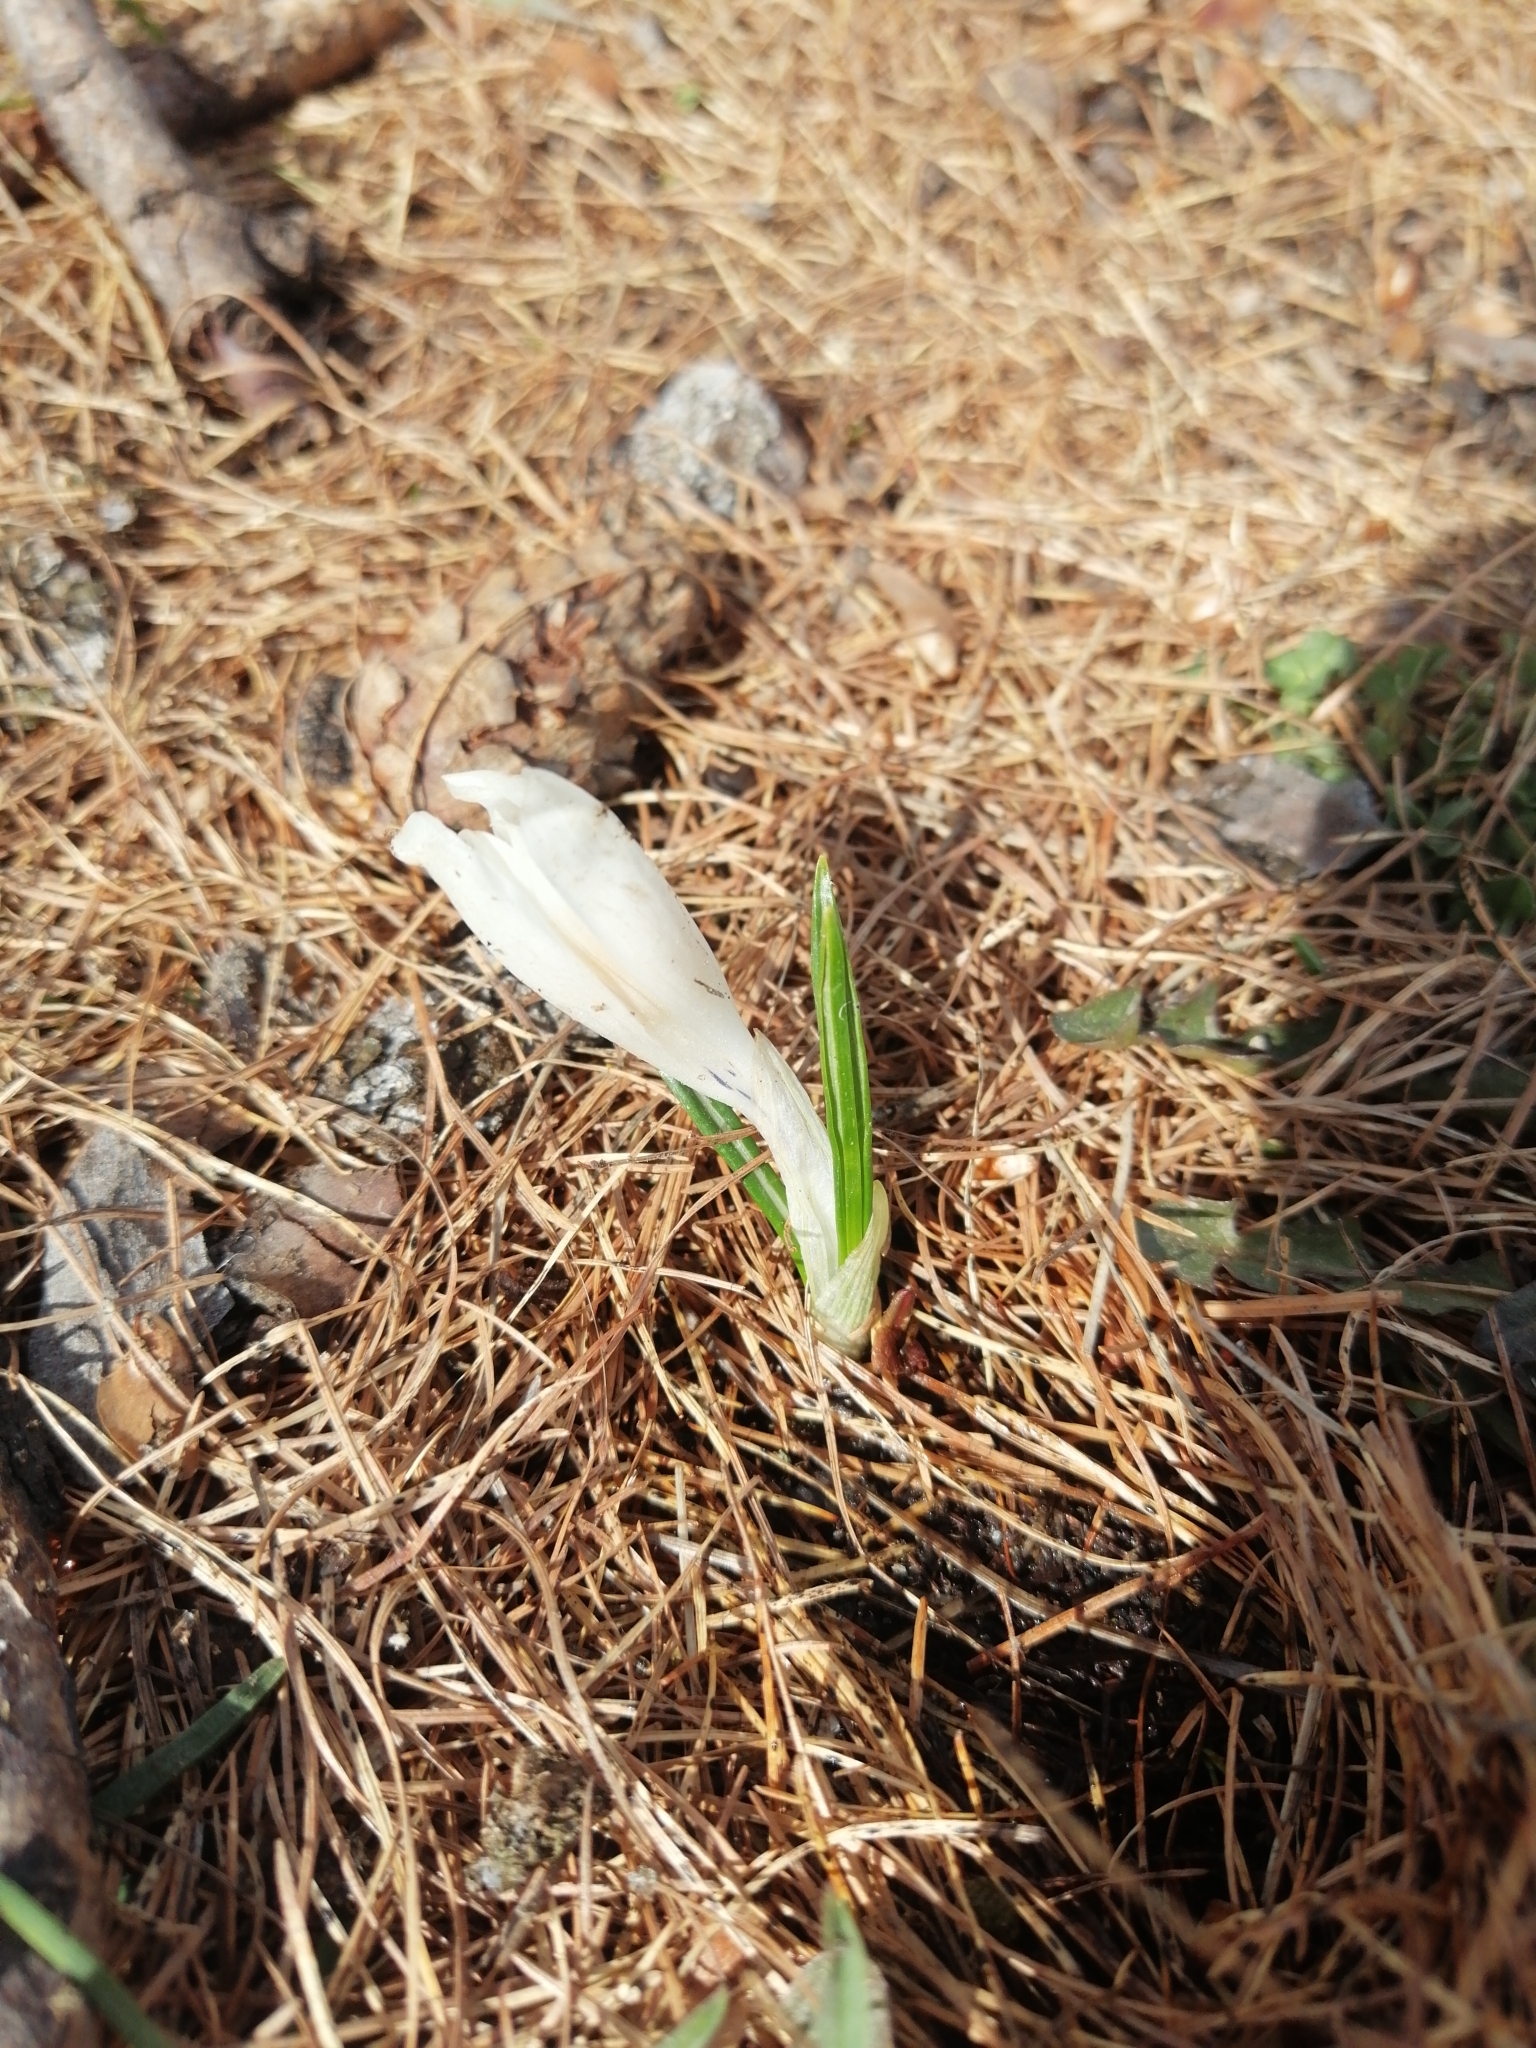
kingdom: Plantae
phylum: Tracheophyta
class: Liliopsida
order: Asparagales
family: Iridaceae
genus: Crocus
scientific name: Crocus vernus
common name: Spring crocus
